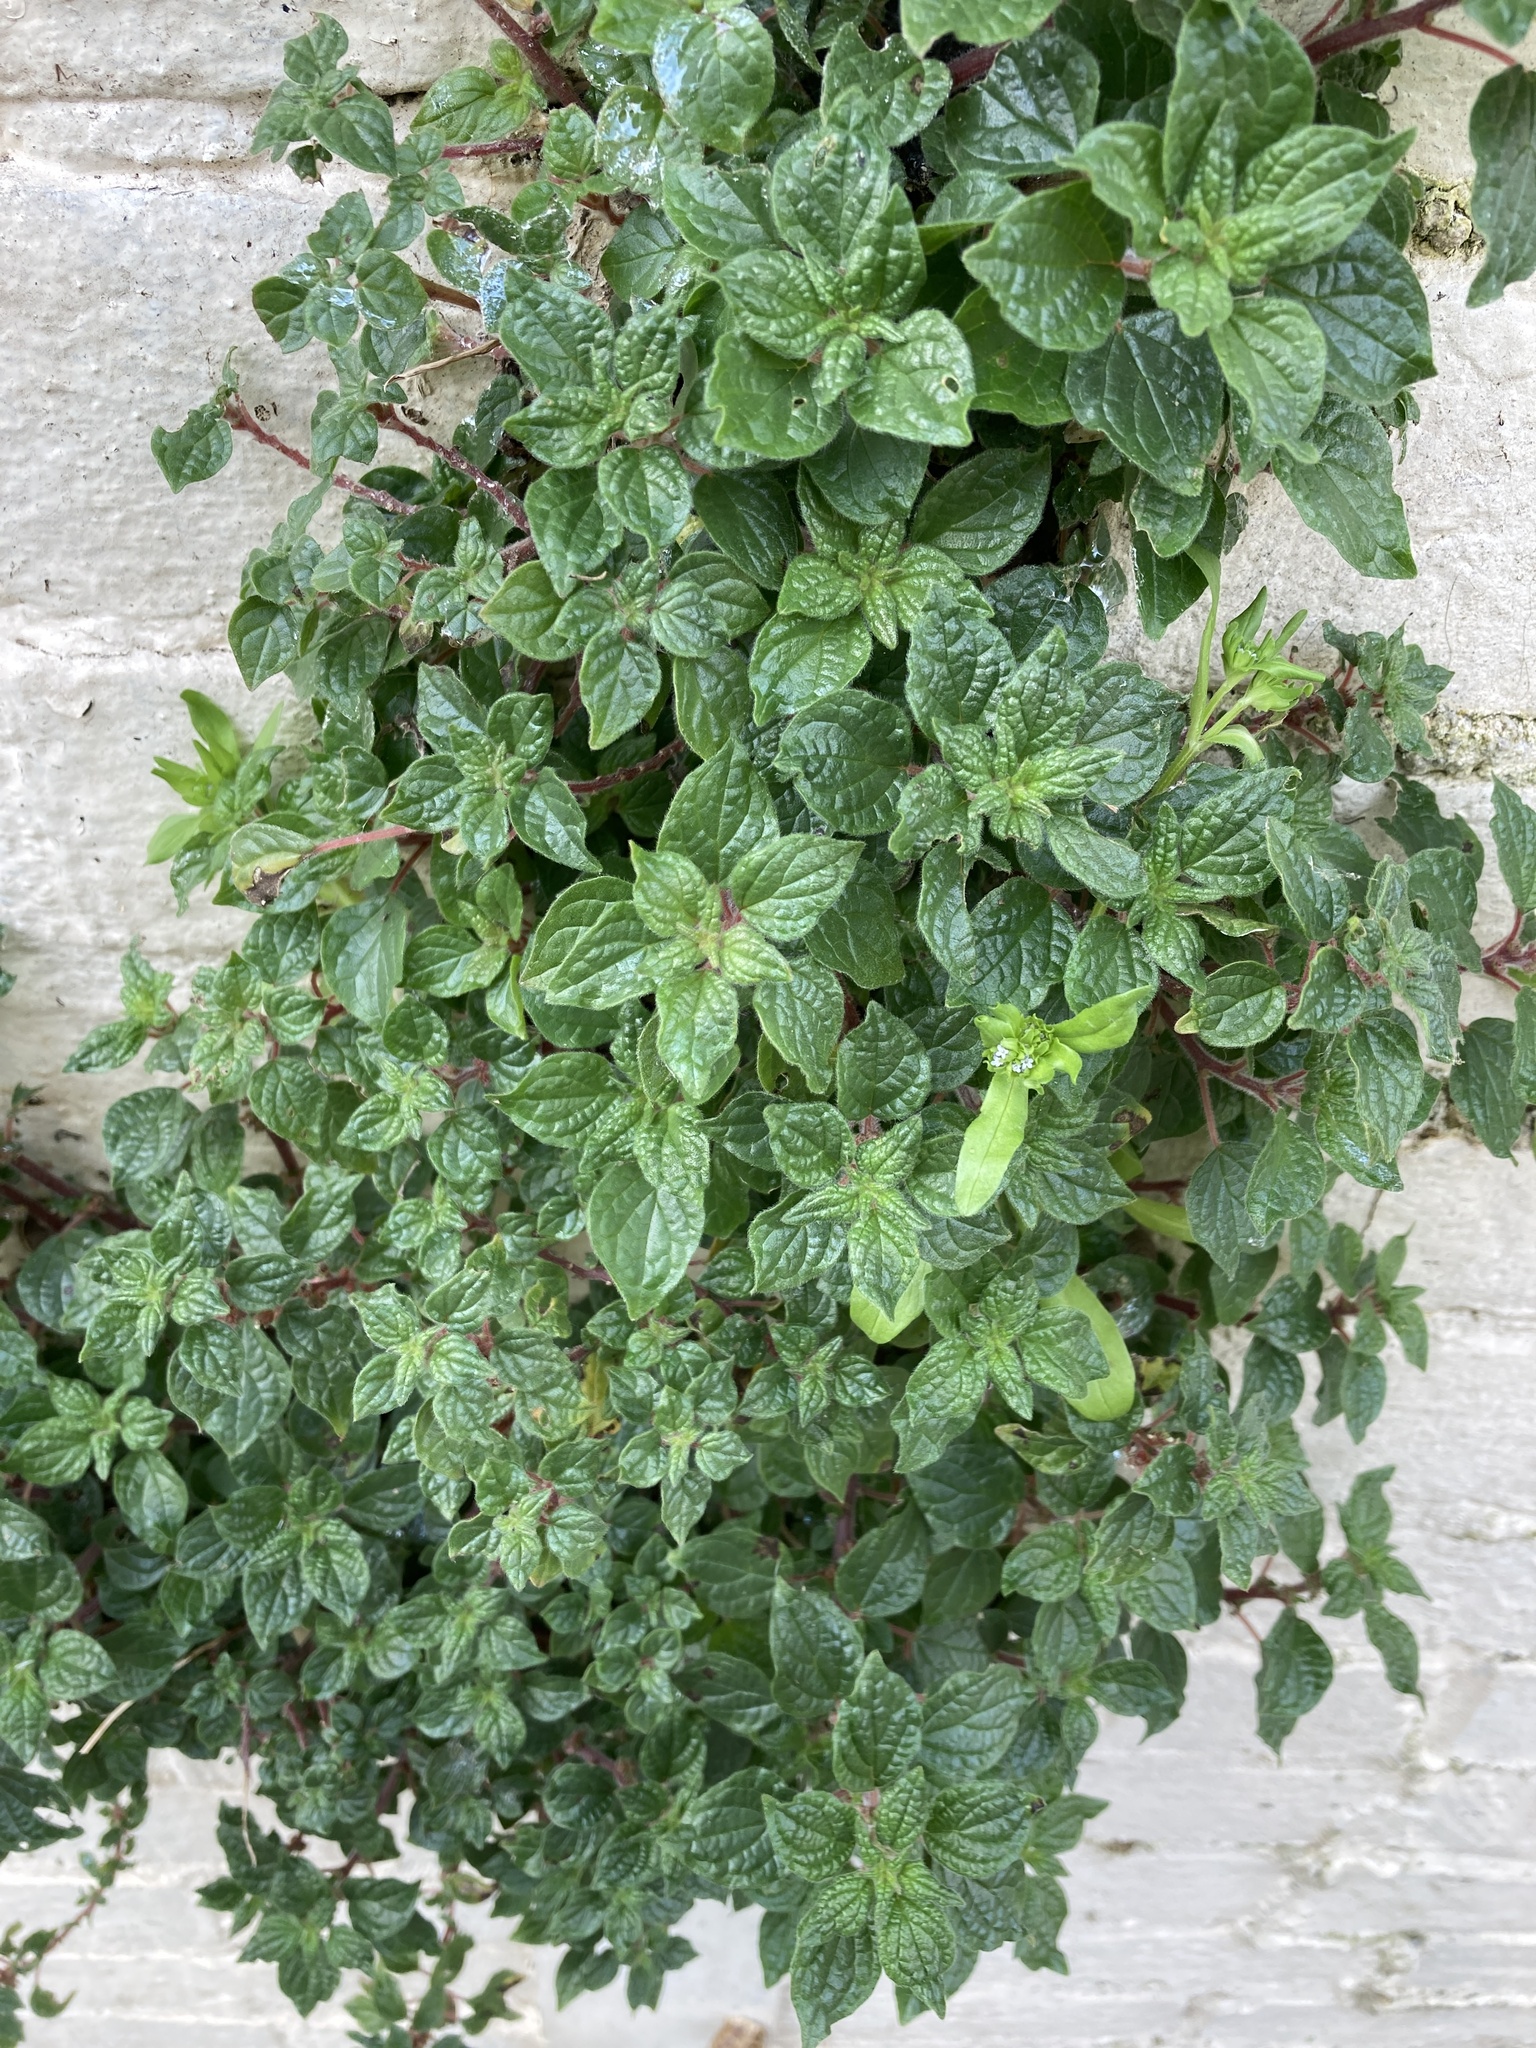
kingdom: Plantae
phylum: Tracheophyta
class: Magnoliopsida
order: Rosales
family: Urticaceae
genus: Parietaria
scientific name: Parietaria judaica
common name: Pellitory-of-the-wall
